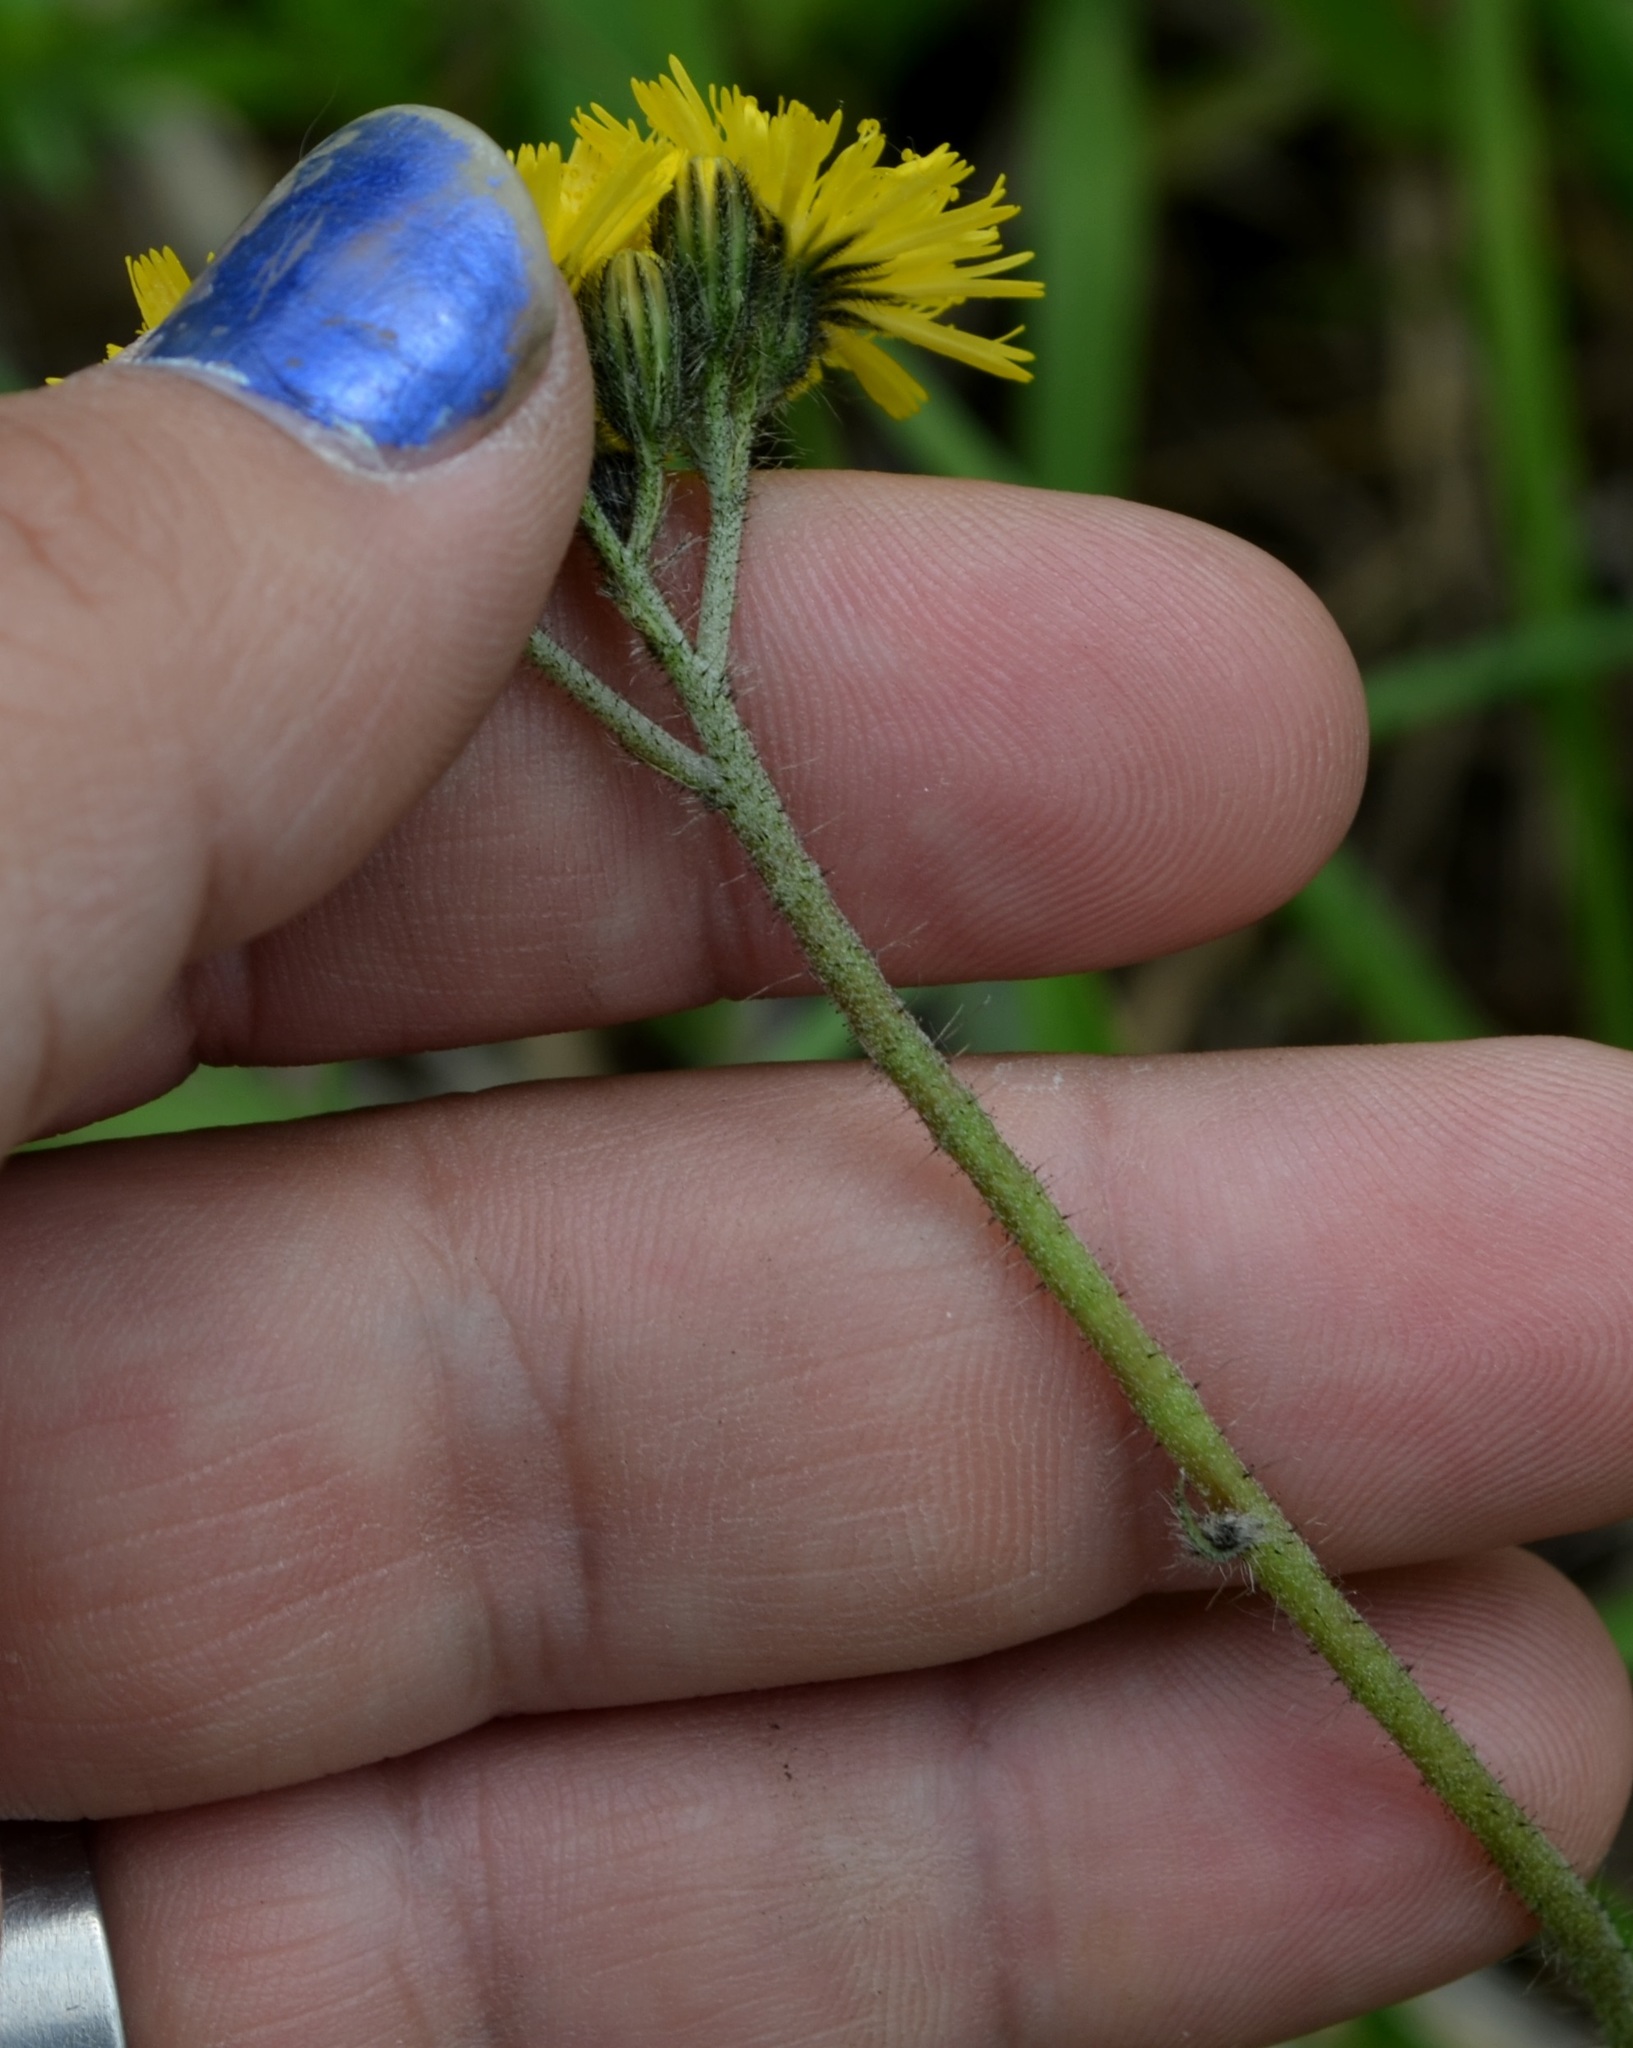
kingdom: Plantae
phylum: Tracheophyta
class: Magnoliopsida
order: Asterales
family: Asteraceae
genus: Pilosella
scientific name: Pilosella caespitosa
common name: Yellow fox-and-cubs
